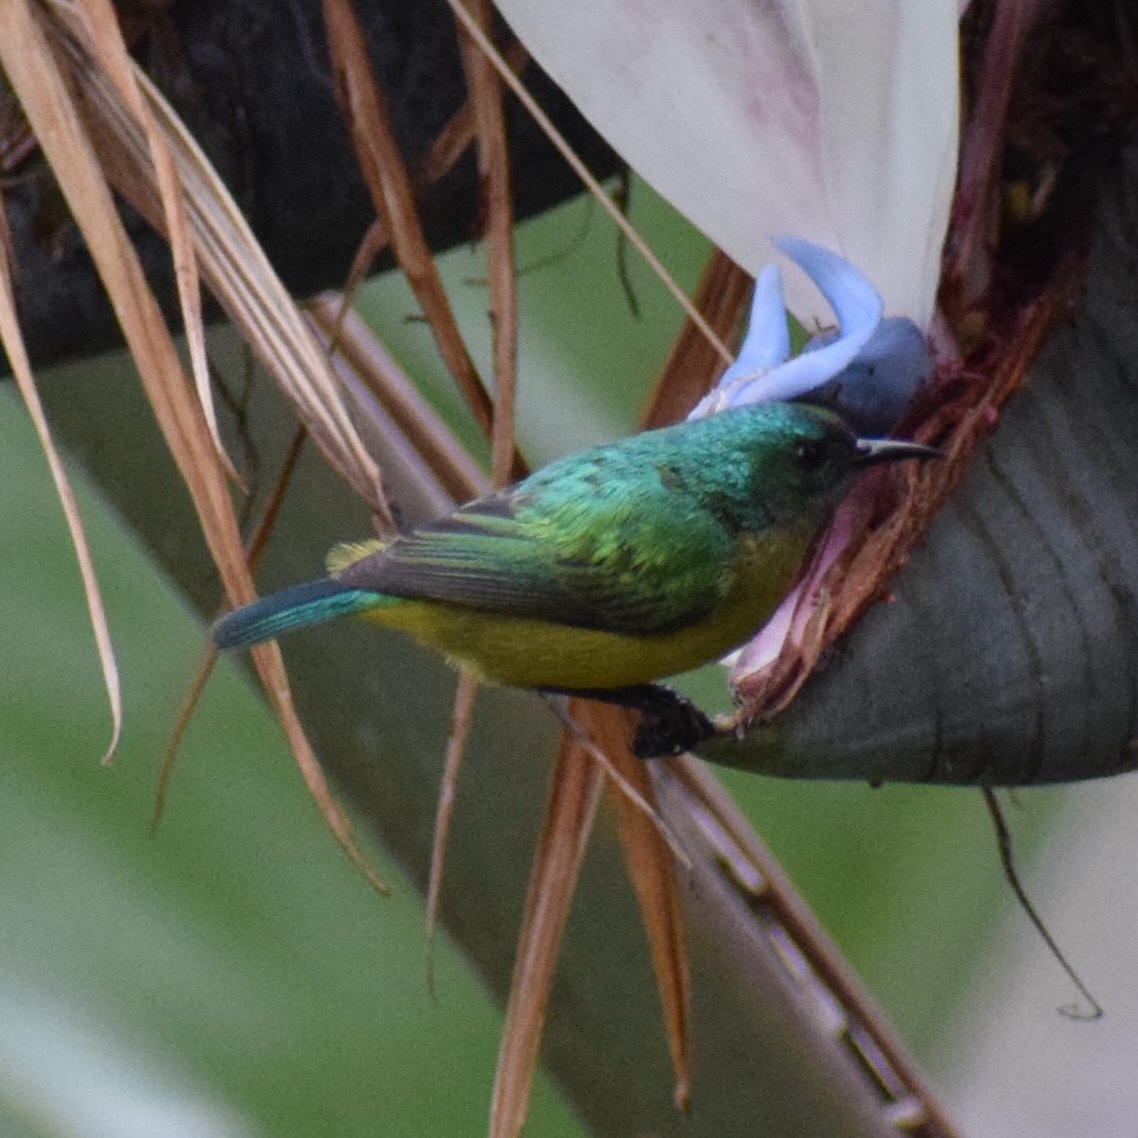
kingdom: Animalia
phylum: Chordata
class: Aves
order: Passeriformes
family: Nectariniidae
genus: Hedydipna
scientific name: Hedydipna collaris
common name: Collared sunbird
